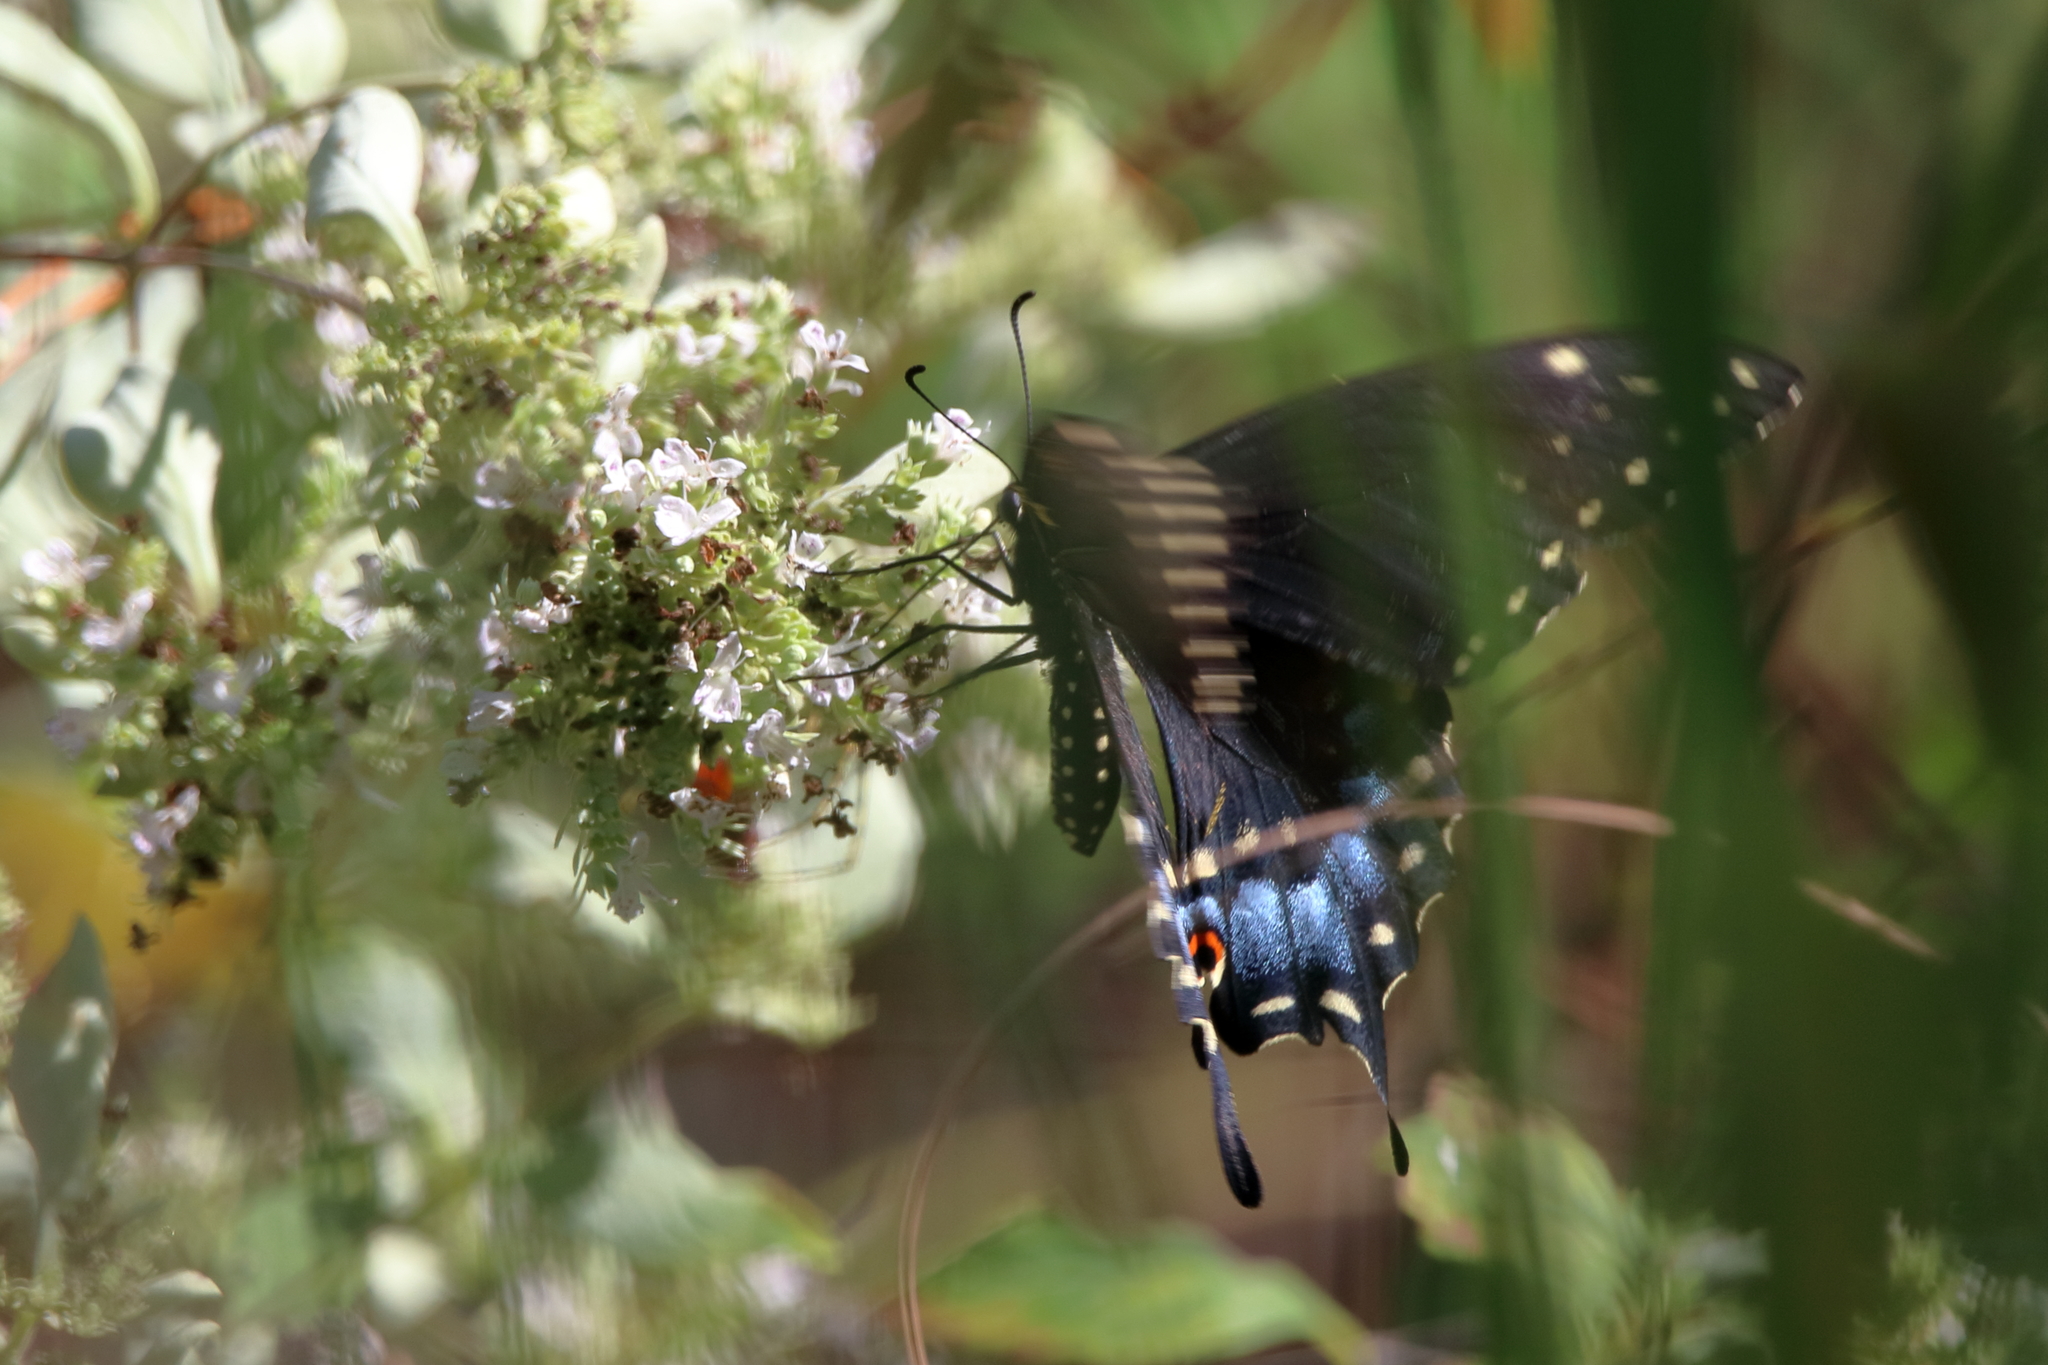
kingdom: Animalia
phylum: Arthropoda
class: Insecta
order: Lepidoptera
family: Papilionidae
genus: Papilio
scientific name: Papilio polyxenes
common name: Black swallowtail
